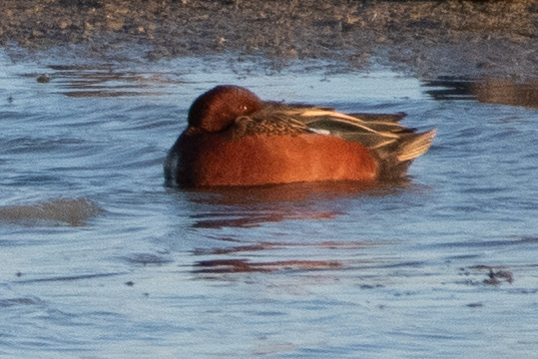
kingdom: Animalia
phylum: Chordata
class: Aves
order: Anseriformes
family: Anatidae
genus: Spatula
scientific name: Spatula cyanoptera
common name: Cinnamon teal
